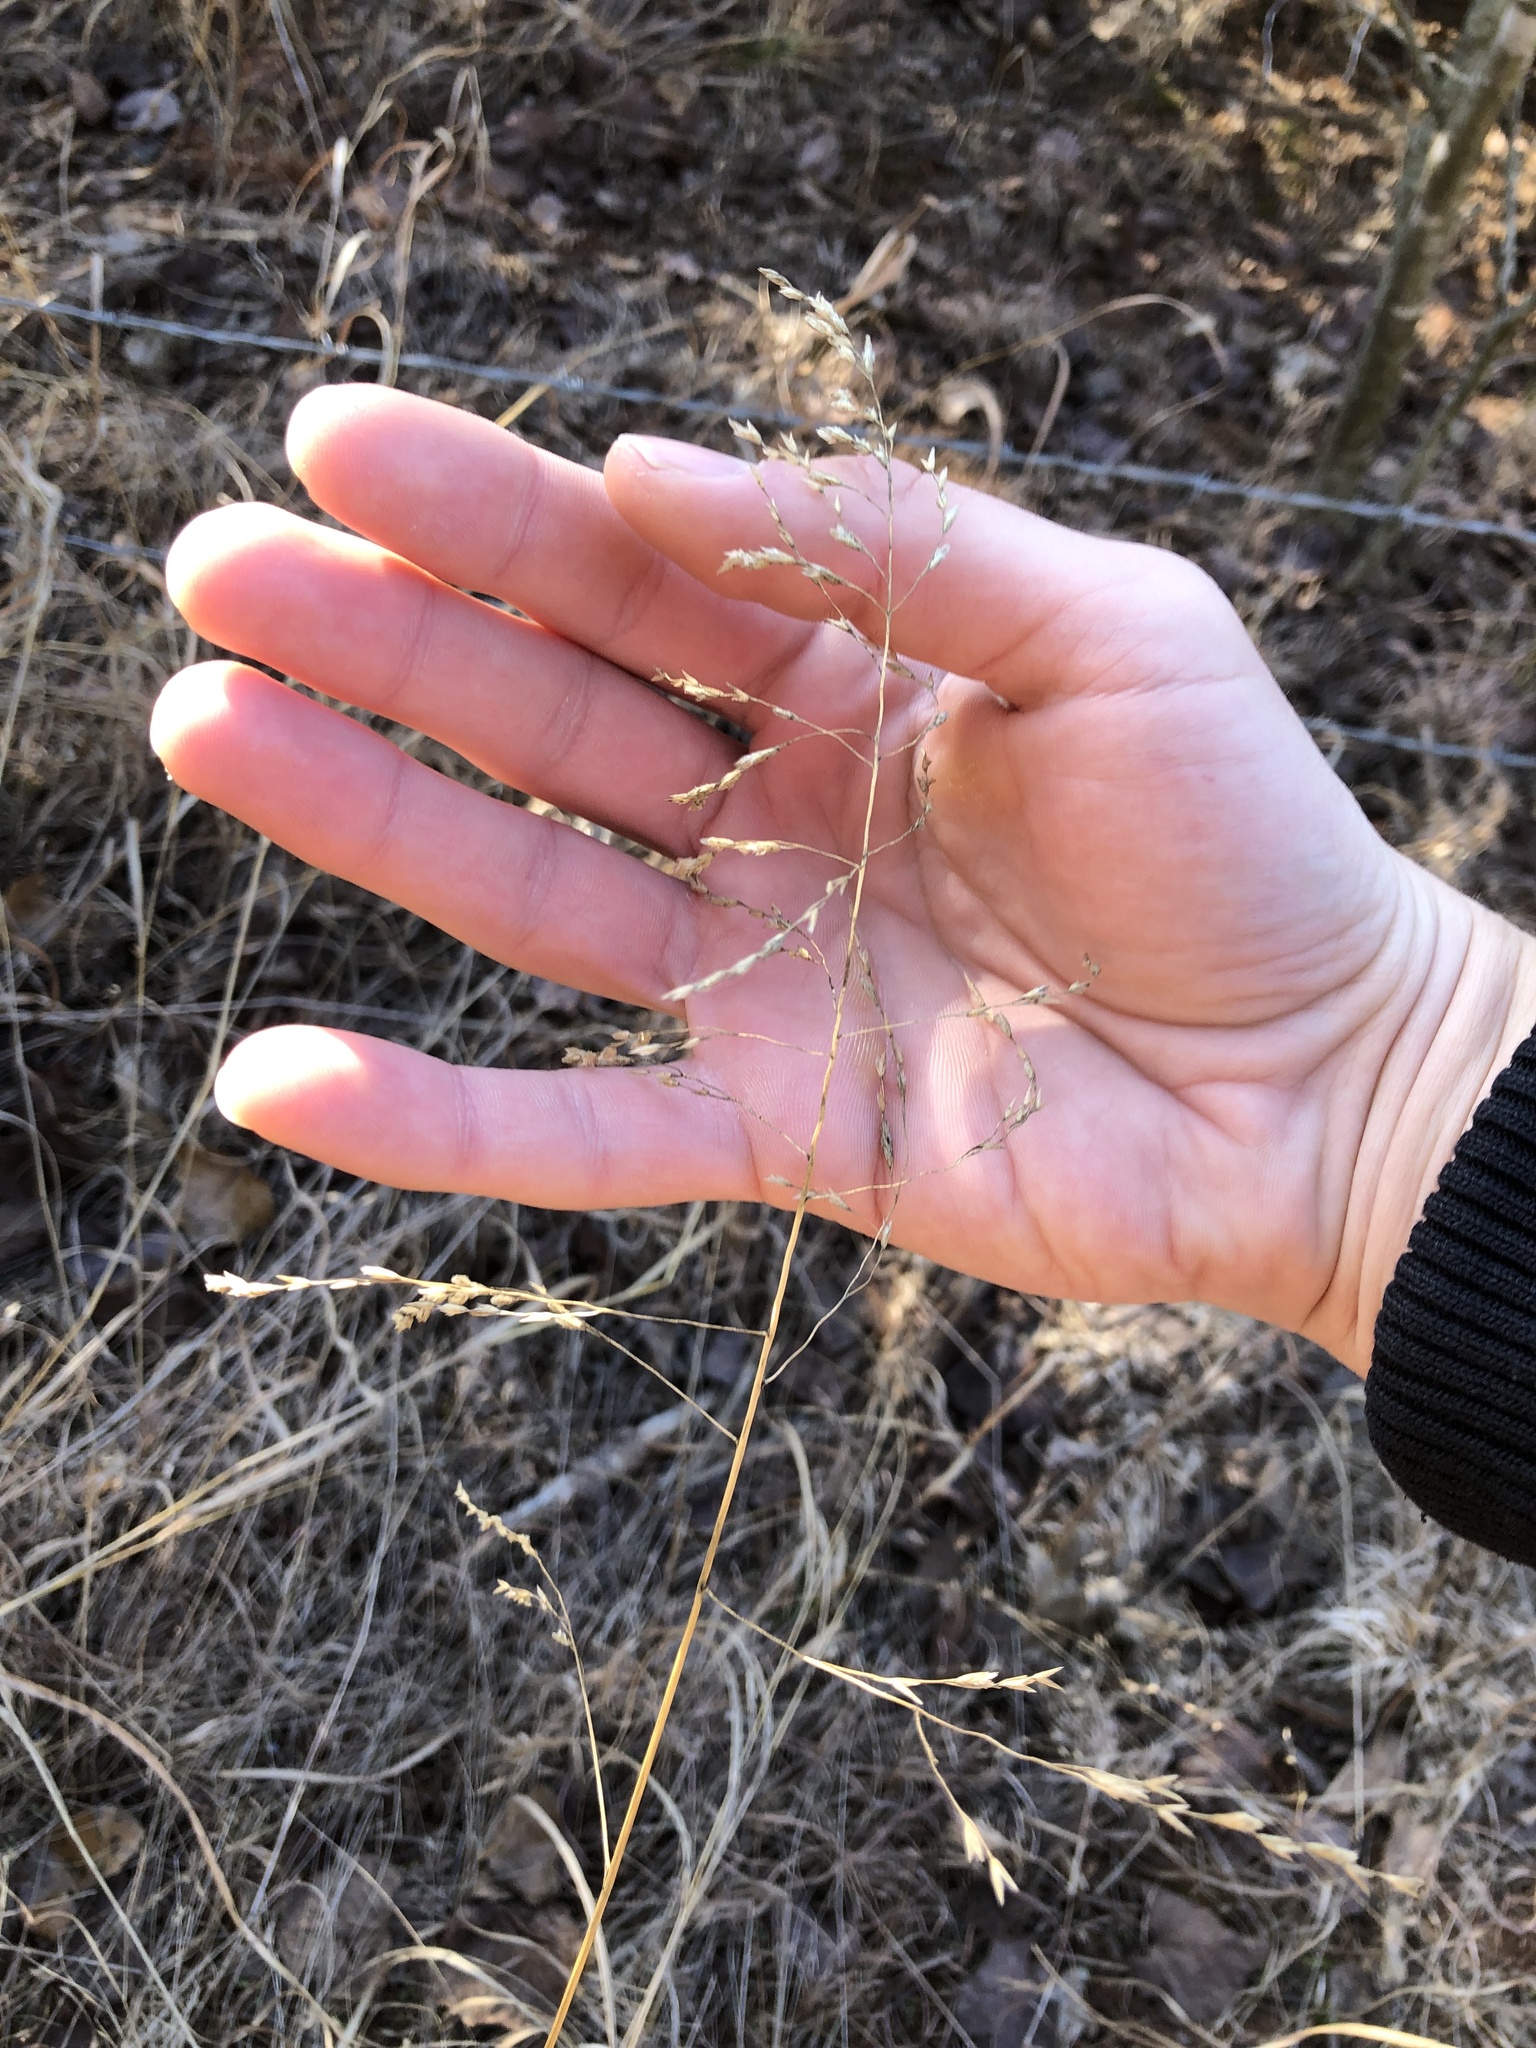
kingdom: Plantae
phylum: Tracheophyta
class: Liliopsida
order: Poales
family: Poaceae
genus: Tridens
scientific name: Tridens flavus
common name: Purpletop
